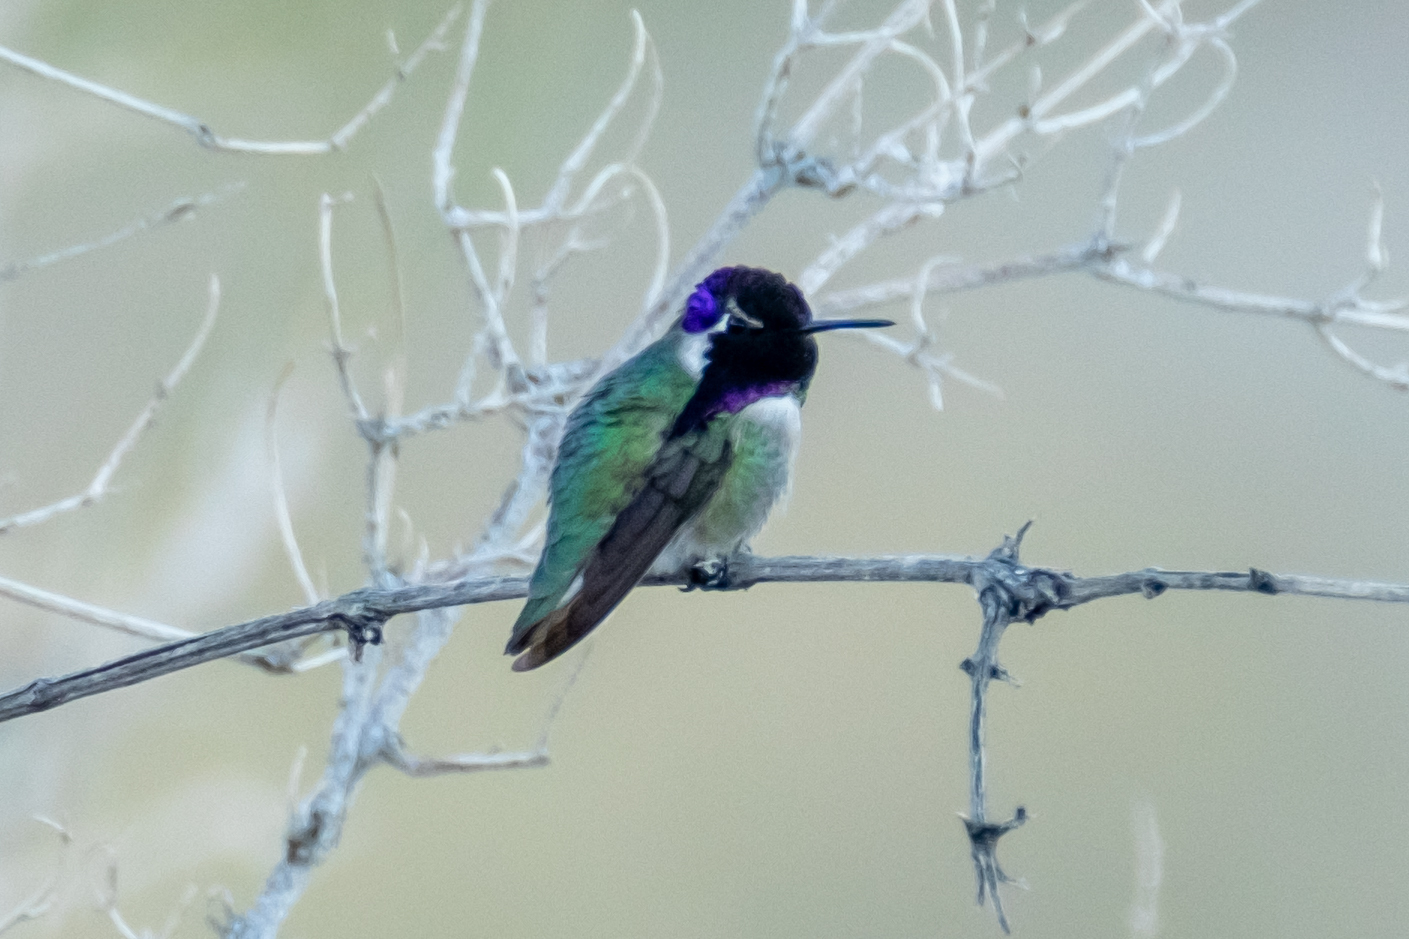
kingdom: Animalia
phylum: Chordata
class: Aves
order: Apodiformes
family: Trochilidae
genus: Calypte
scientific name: Calypte costae
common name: Costa's hummingbird
